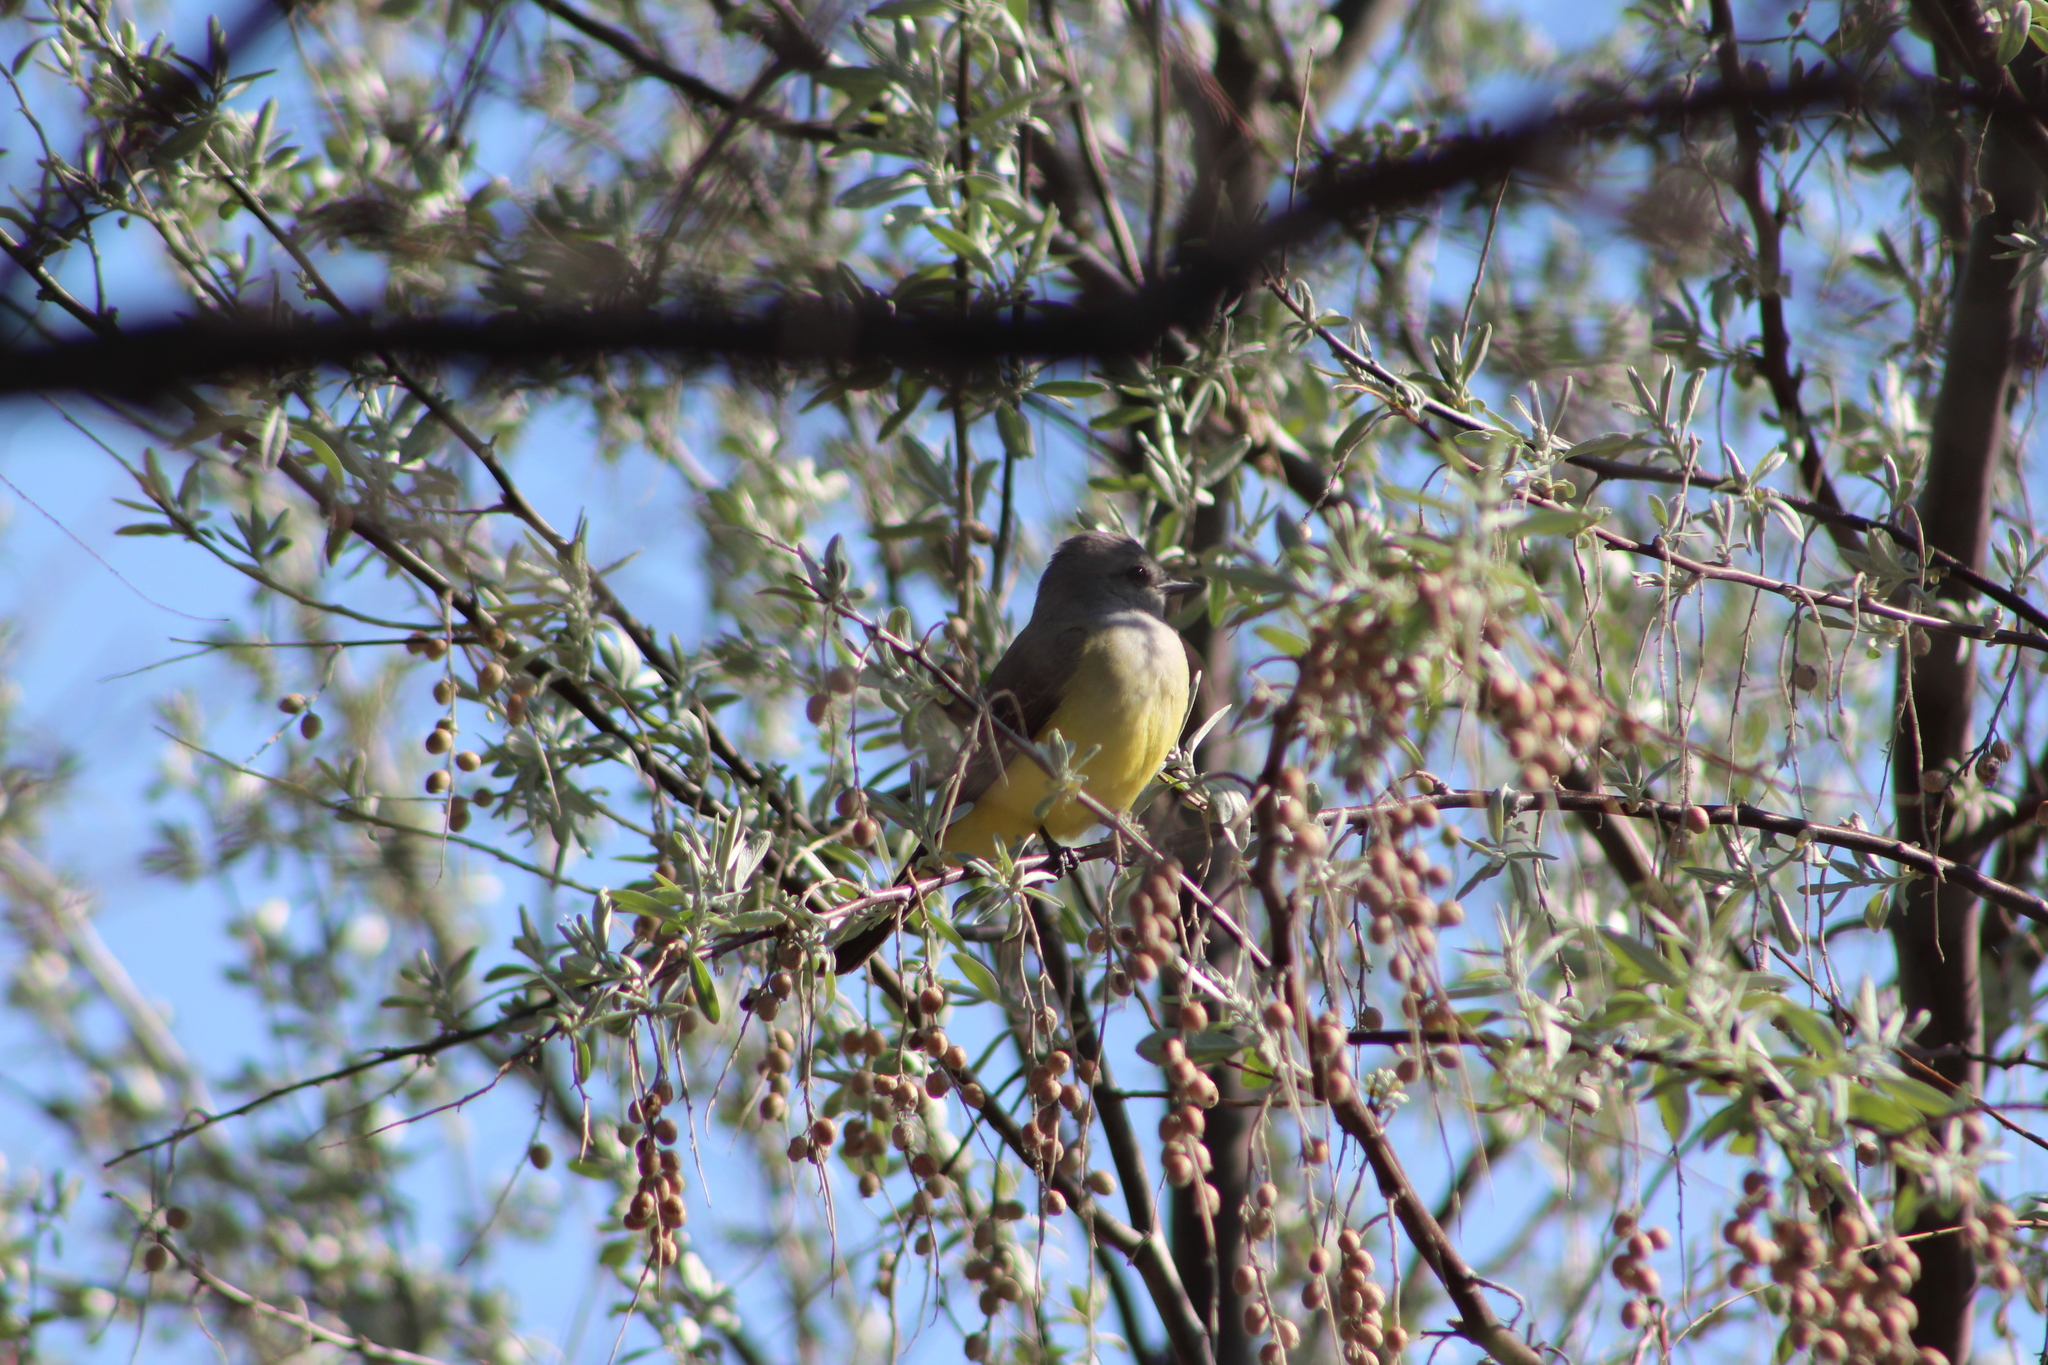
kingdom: Animalia
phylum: Chordata
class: Aves
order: Passeriformes
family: Tyrannidae
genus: Tyrannus
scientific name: Tyrannus verticalis
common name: Western kingbird
